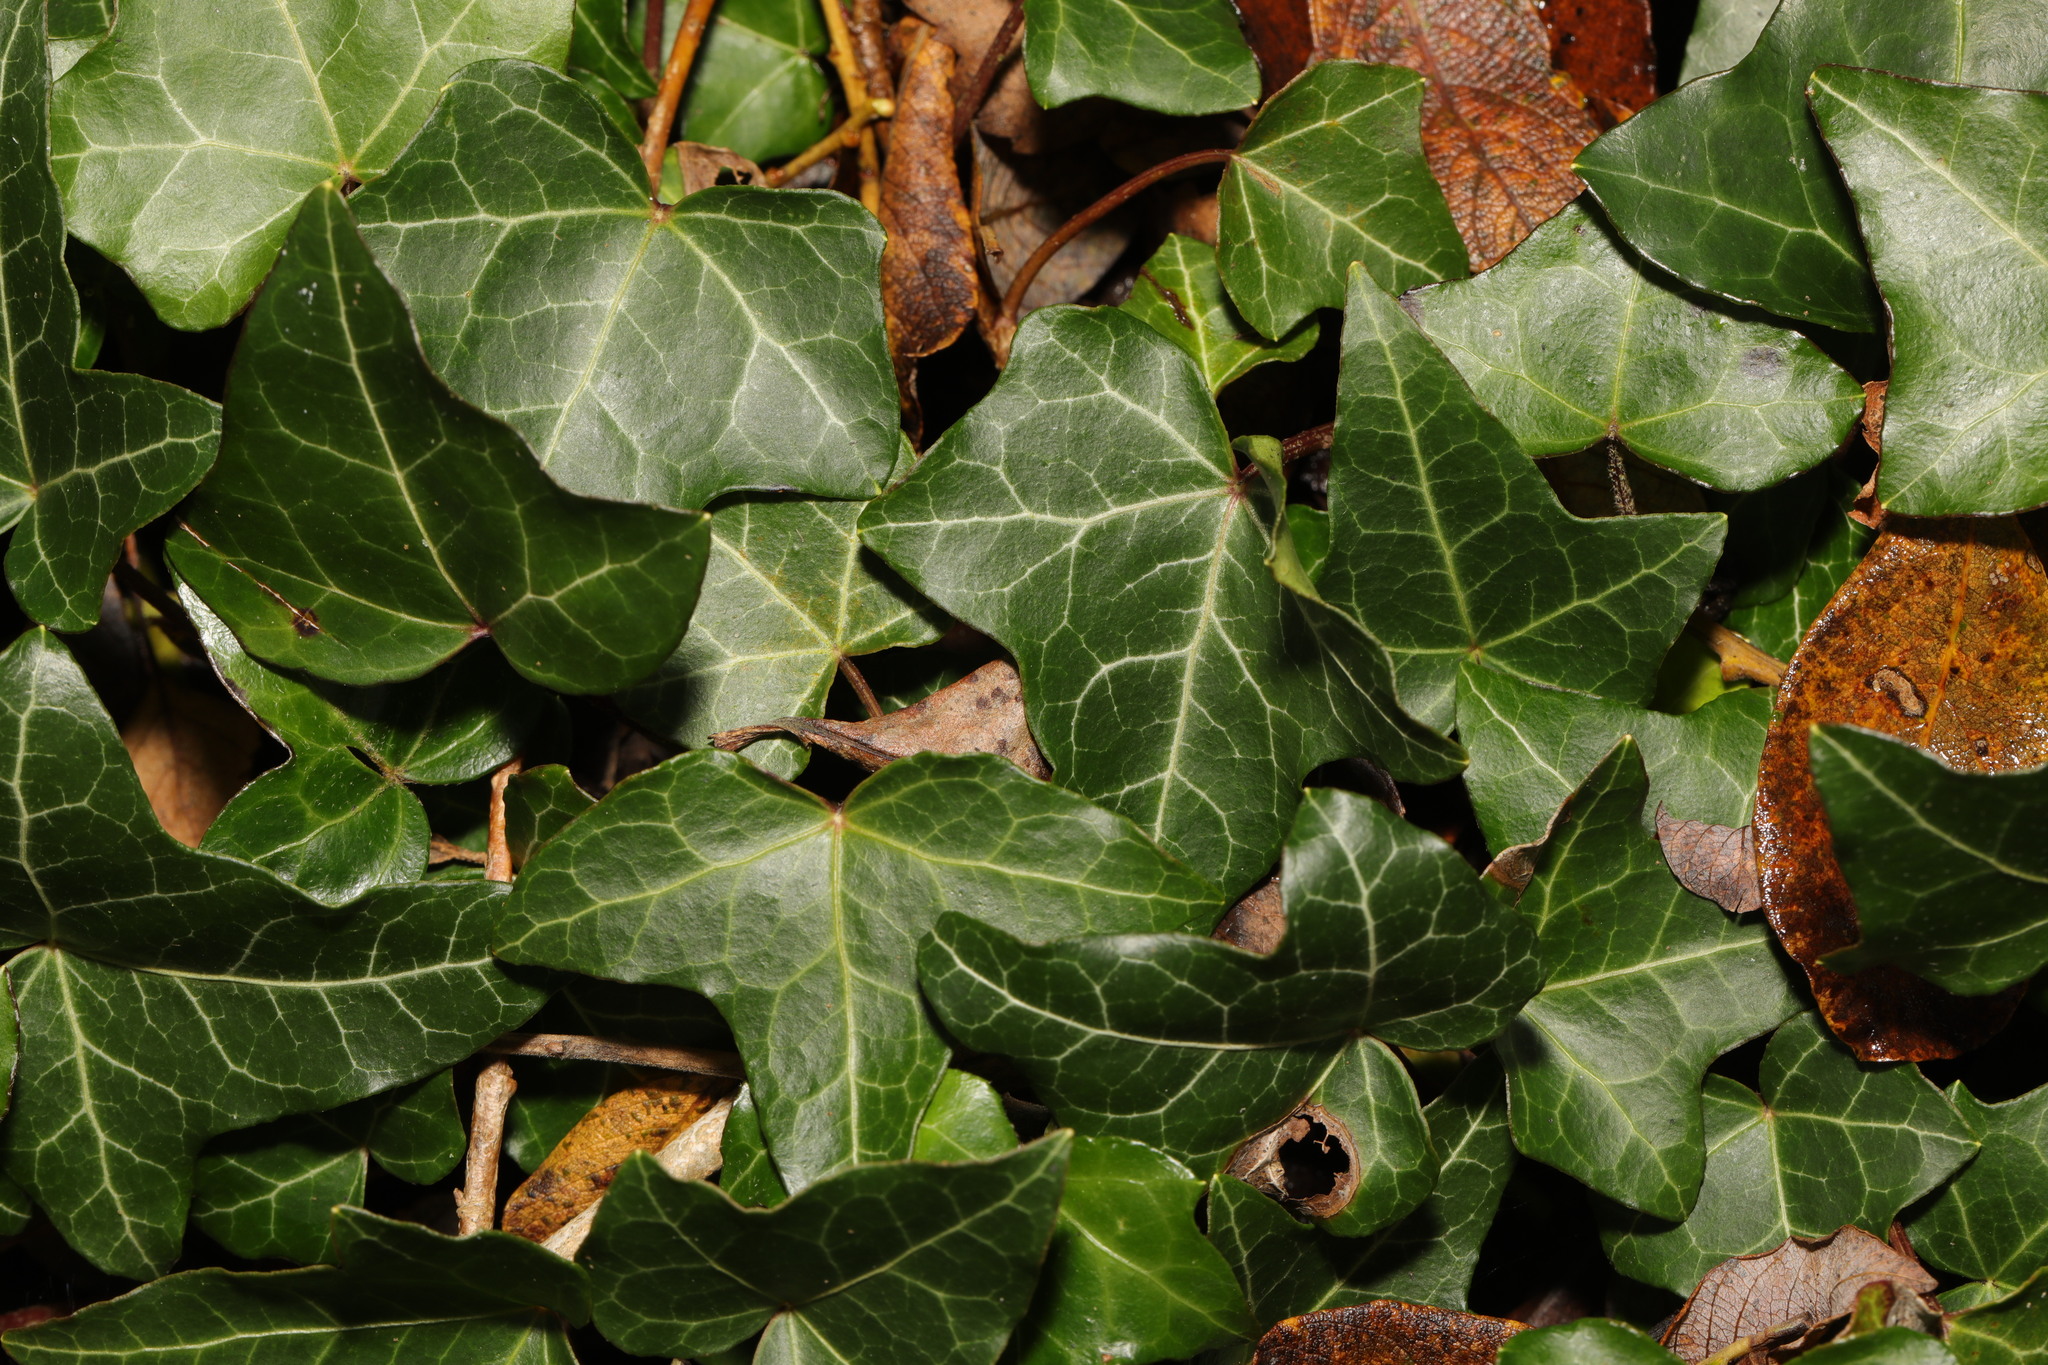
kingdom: Plantae
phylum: Tracheophyta
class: Magnoliopsida
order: Apiales
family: Araliaceae
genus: Hedera
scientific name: Hedera helix
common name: Ivy
